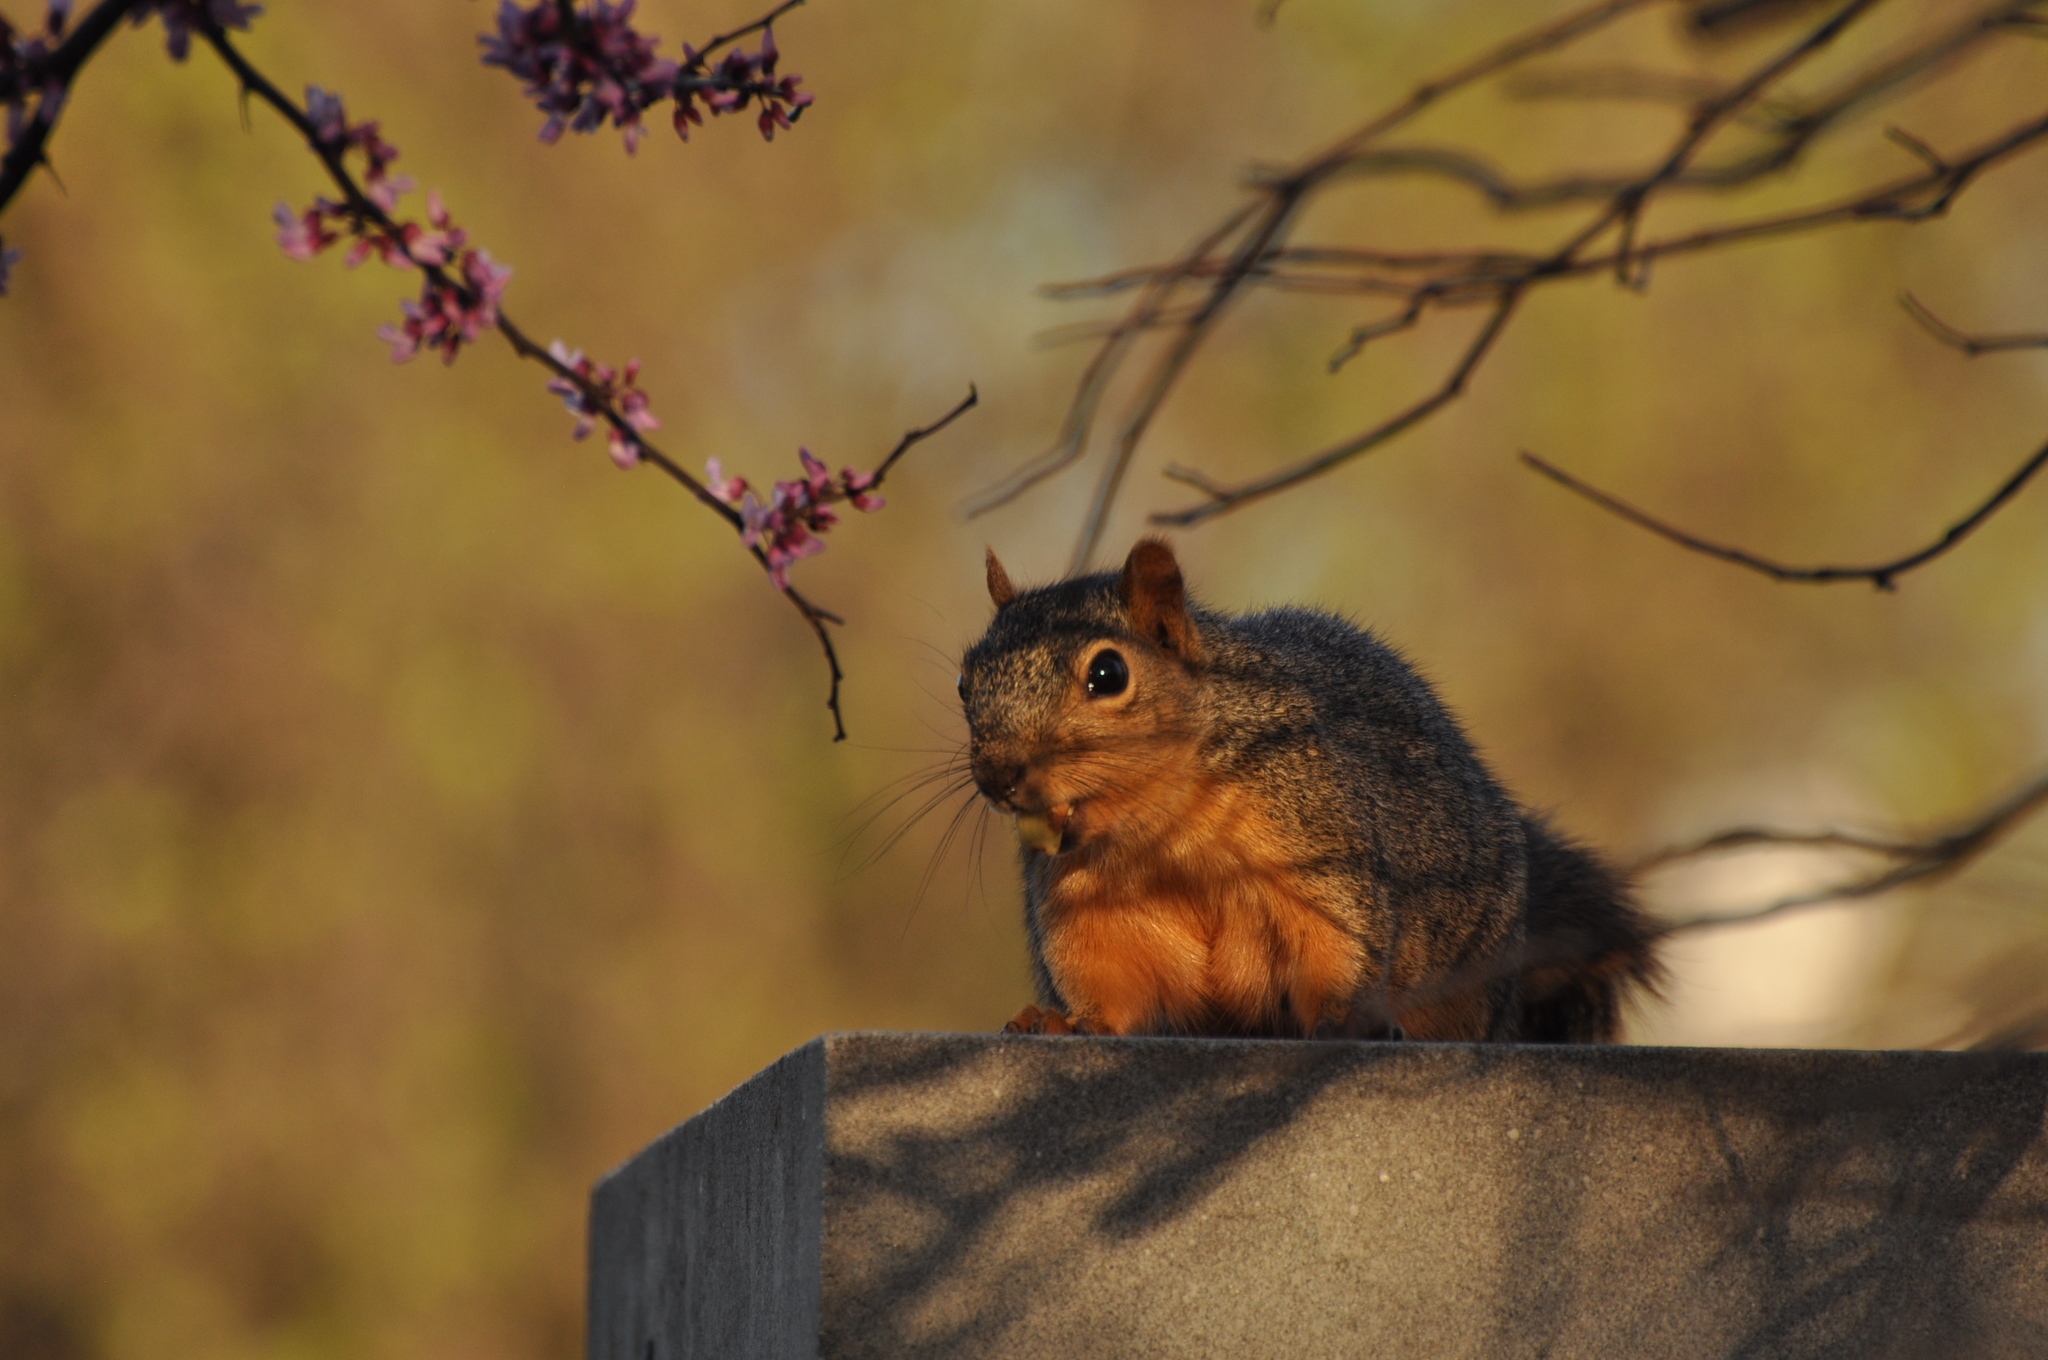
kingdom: Animalia
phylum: Chordata
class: Mammalia
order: Rodentia
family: Sciuridae
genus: Sciurus
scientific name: Sciurus niger
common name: Fox squirrel
